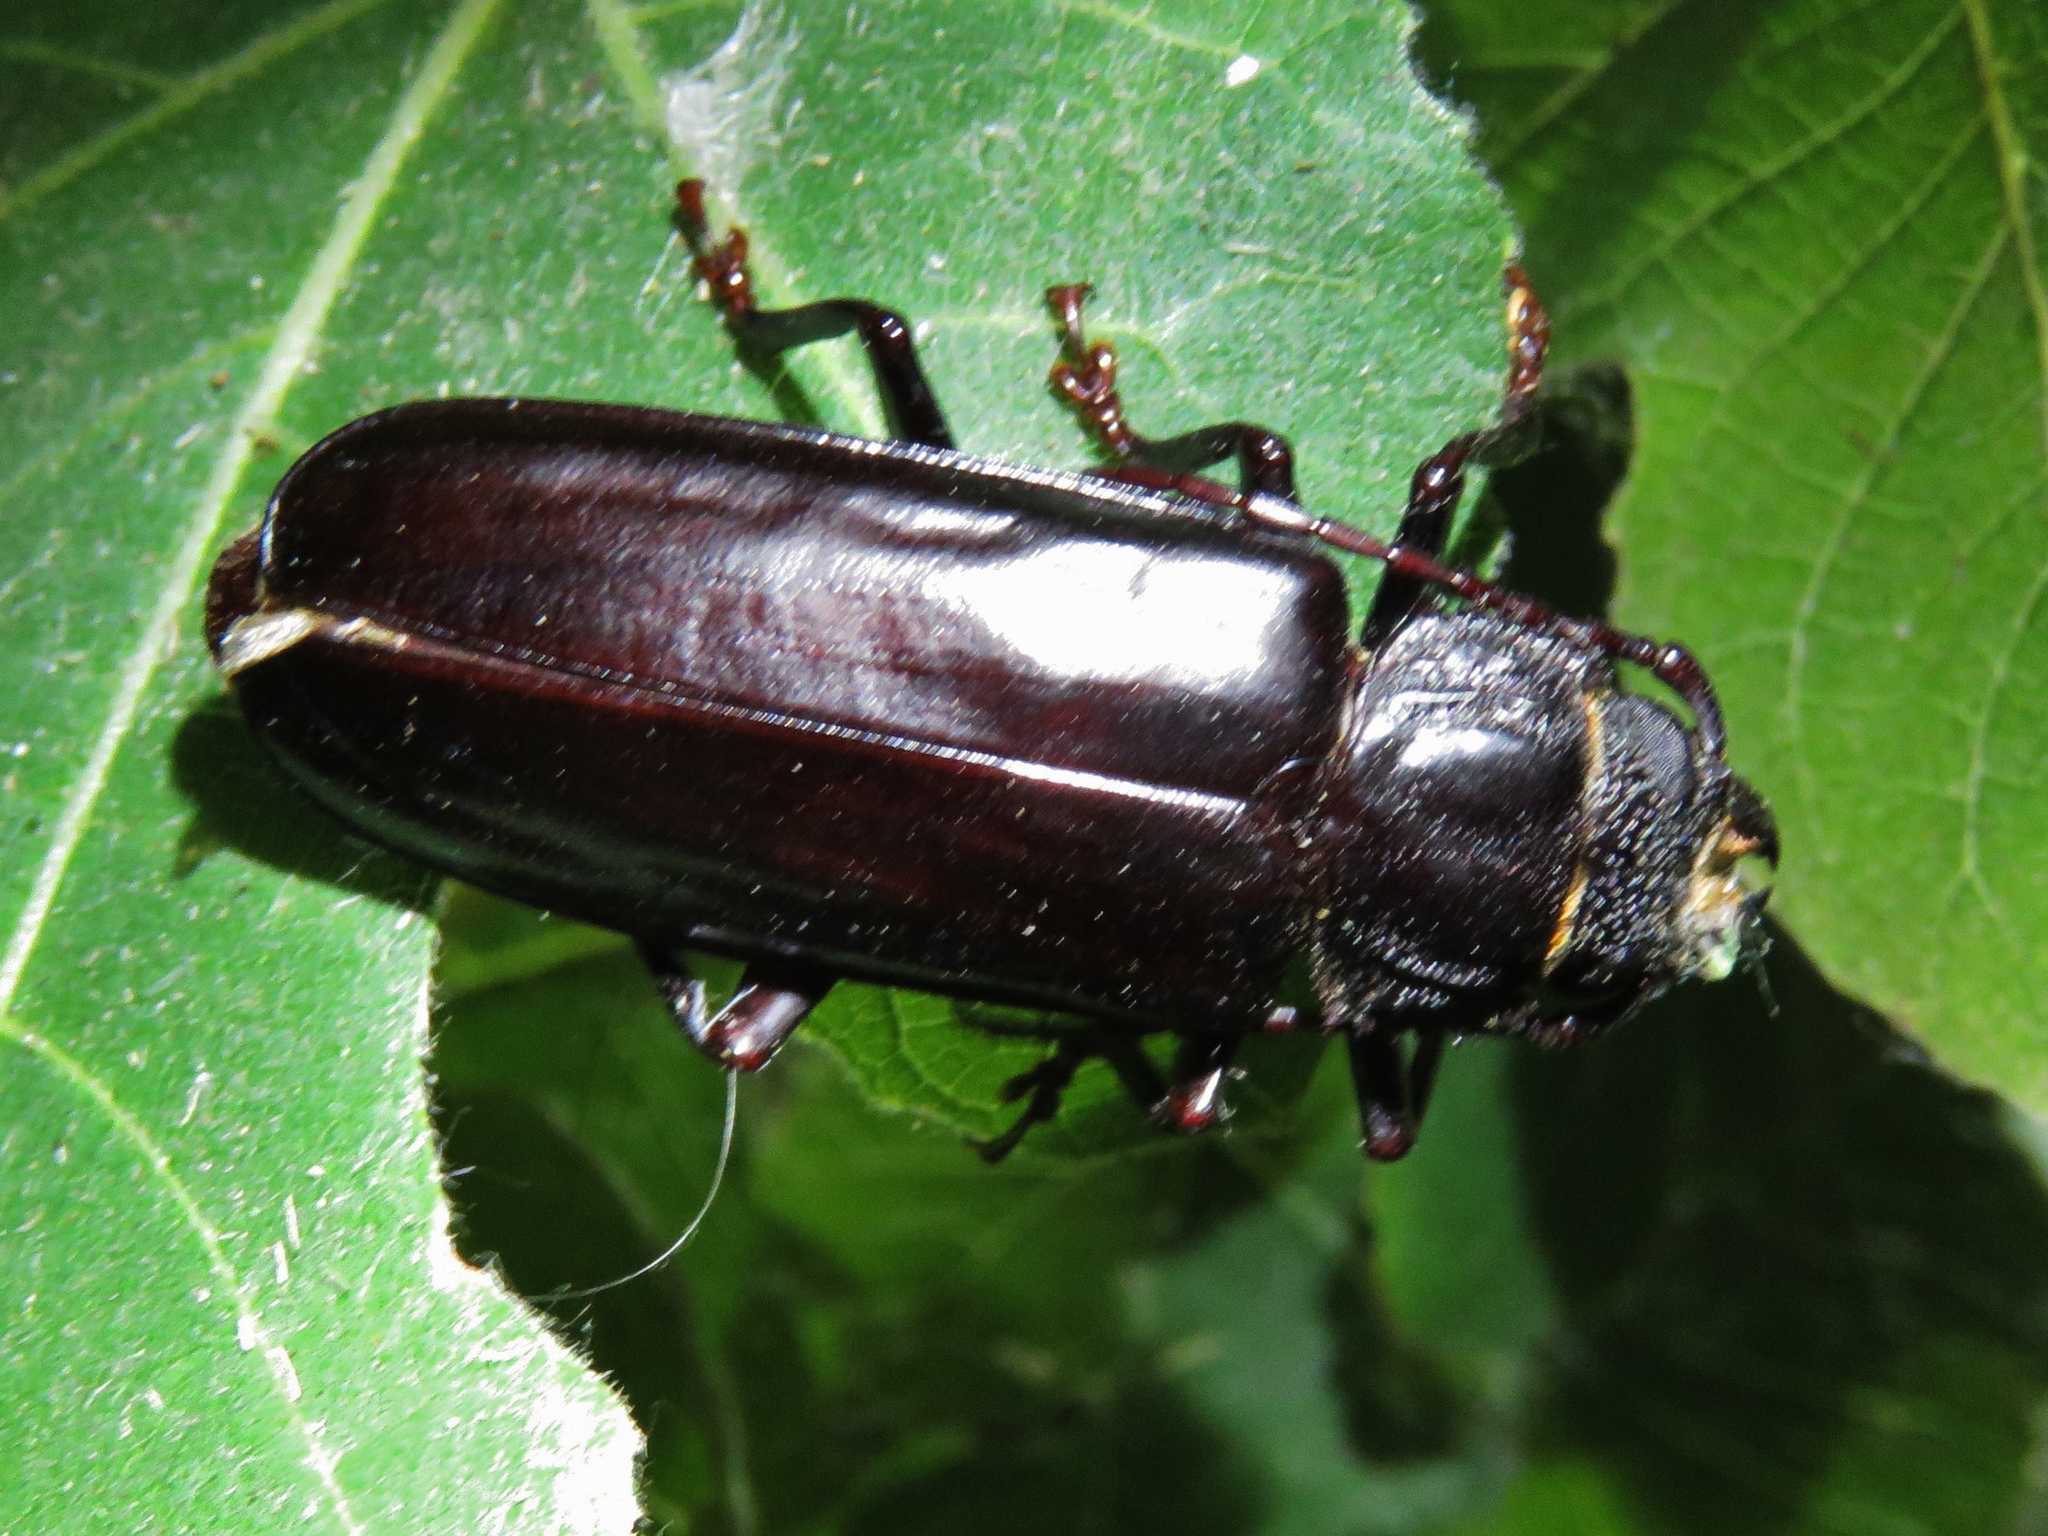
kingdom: Animalia
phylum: Arthropoda
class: Insecta
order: Coleoptera
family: Cerambycidae
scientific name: Cerambycidae
